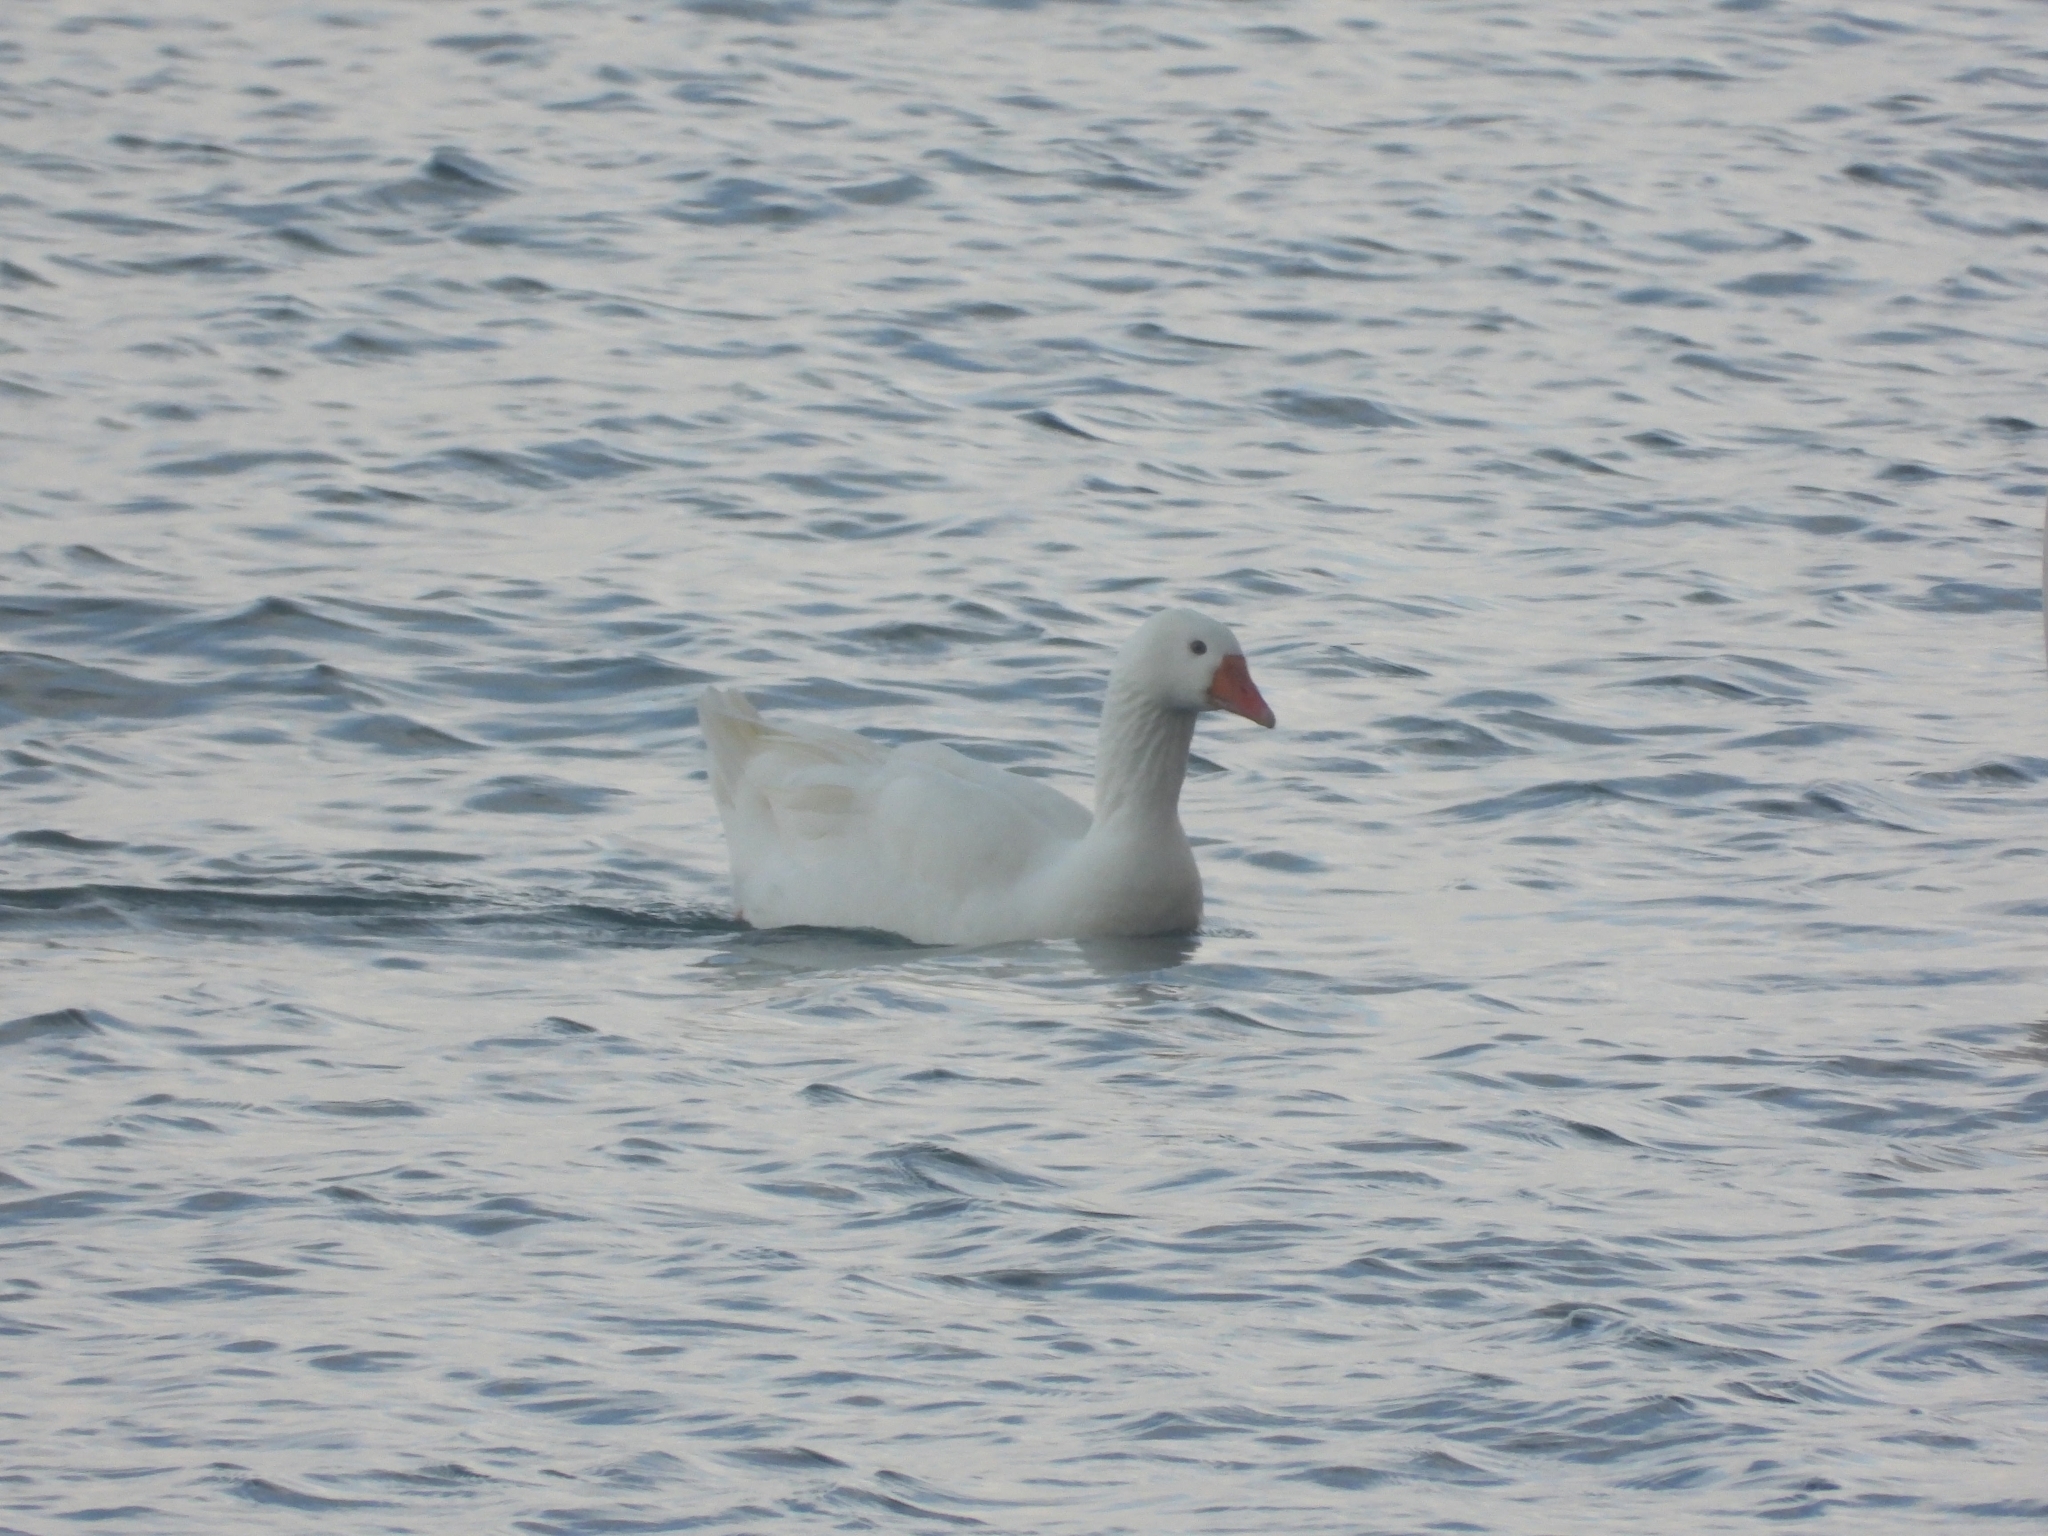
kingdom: Animalia
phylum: Chordata
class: Aves
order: Anseriformes
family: Anatidae
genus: Anser
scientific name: Anser anser
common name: Greylag goose
